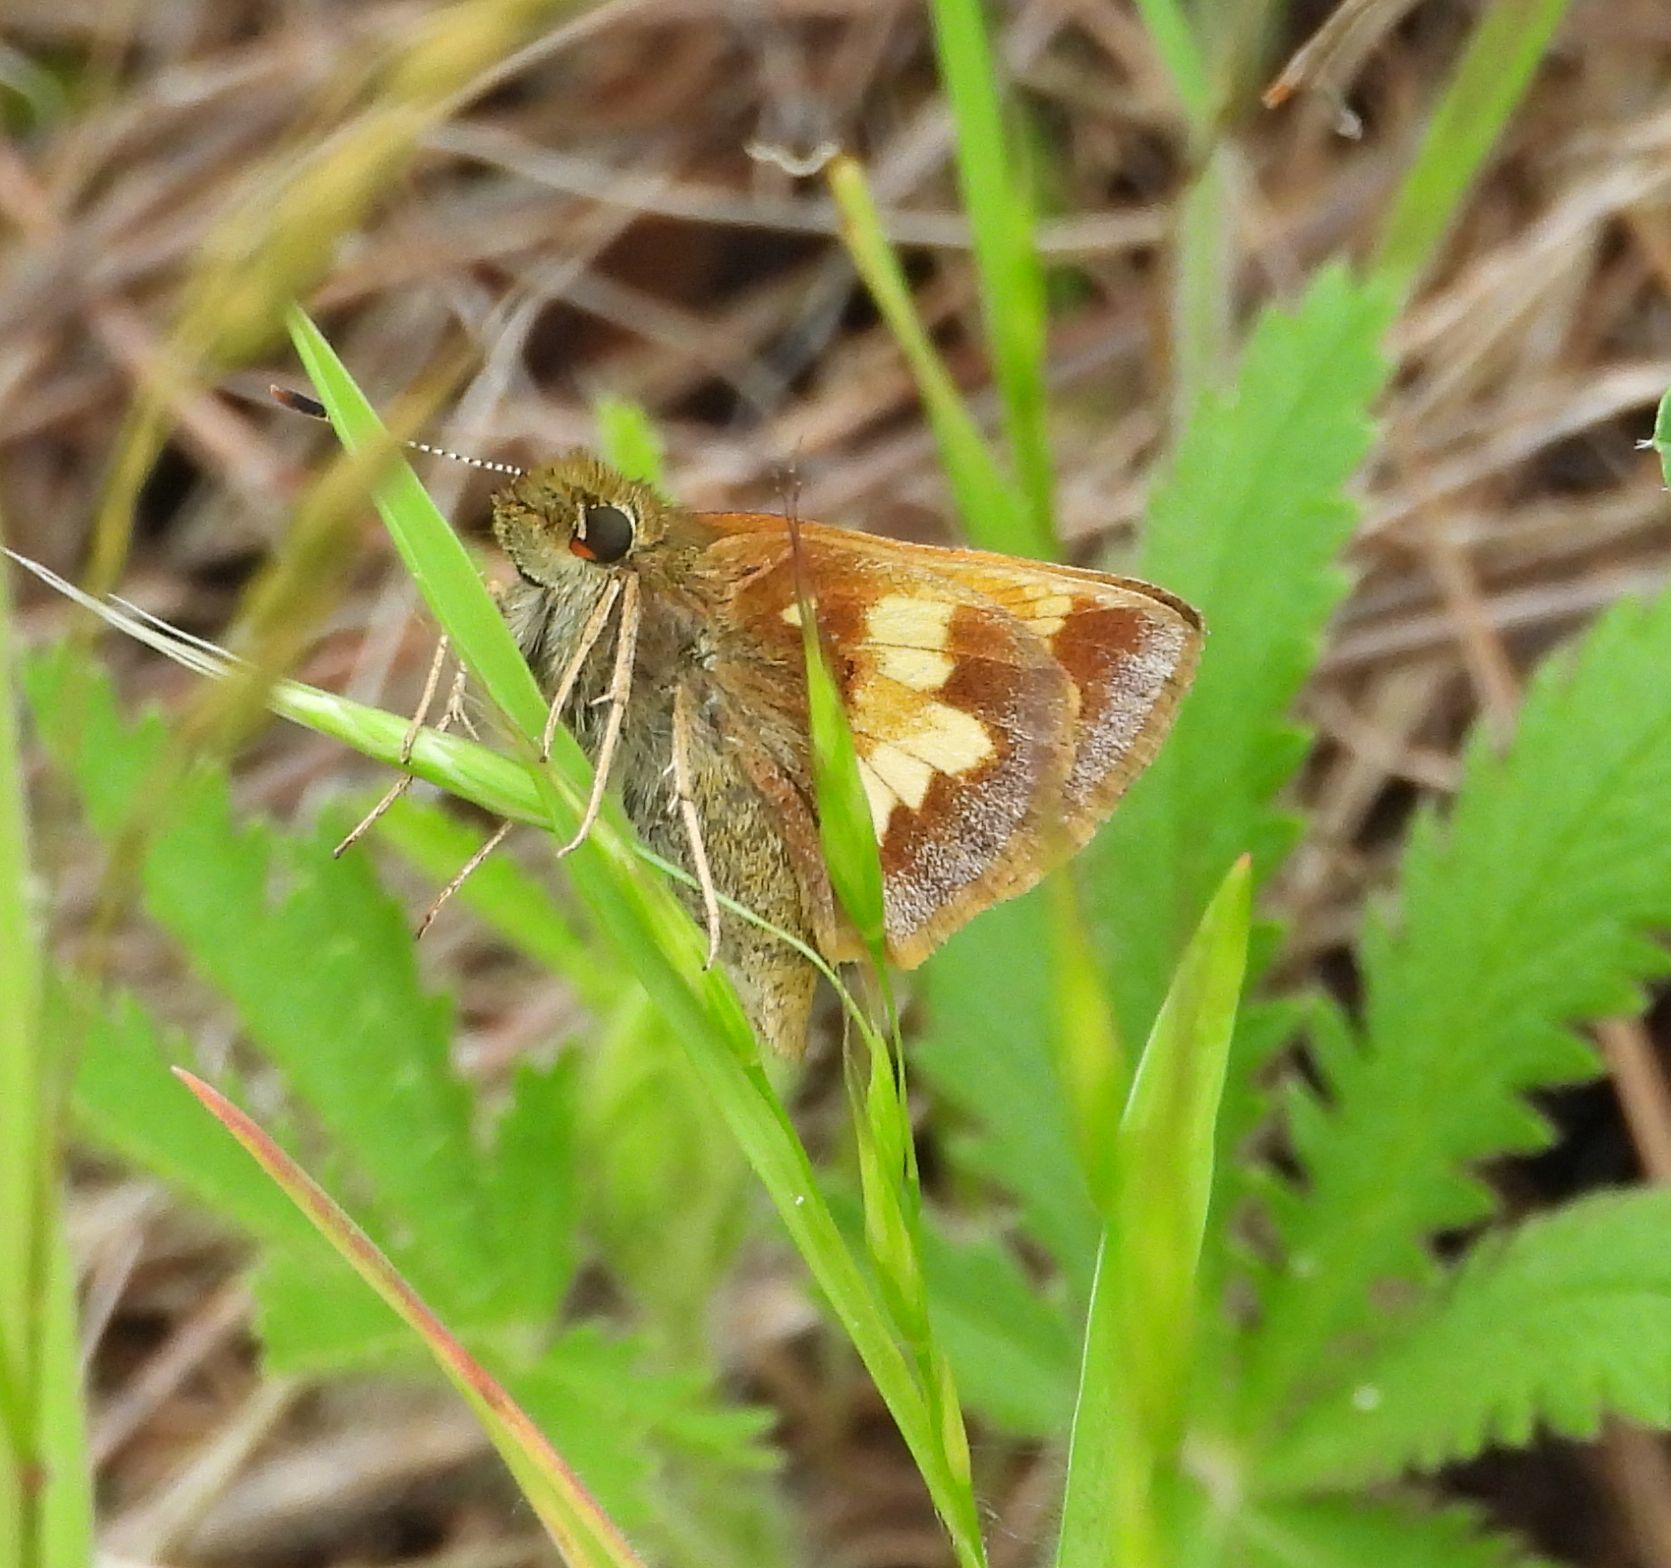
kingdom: Animalia
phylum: Arthropoda
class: Insecta
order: Lepidoptera
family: Hesperiidae
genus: Lon
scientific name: Lon hobomok
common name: Hobomok skipper
